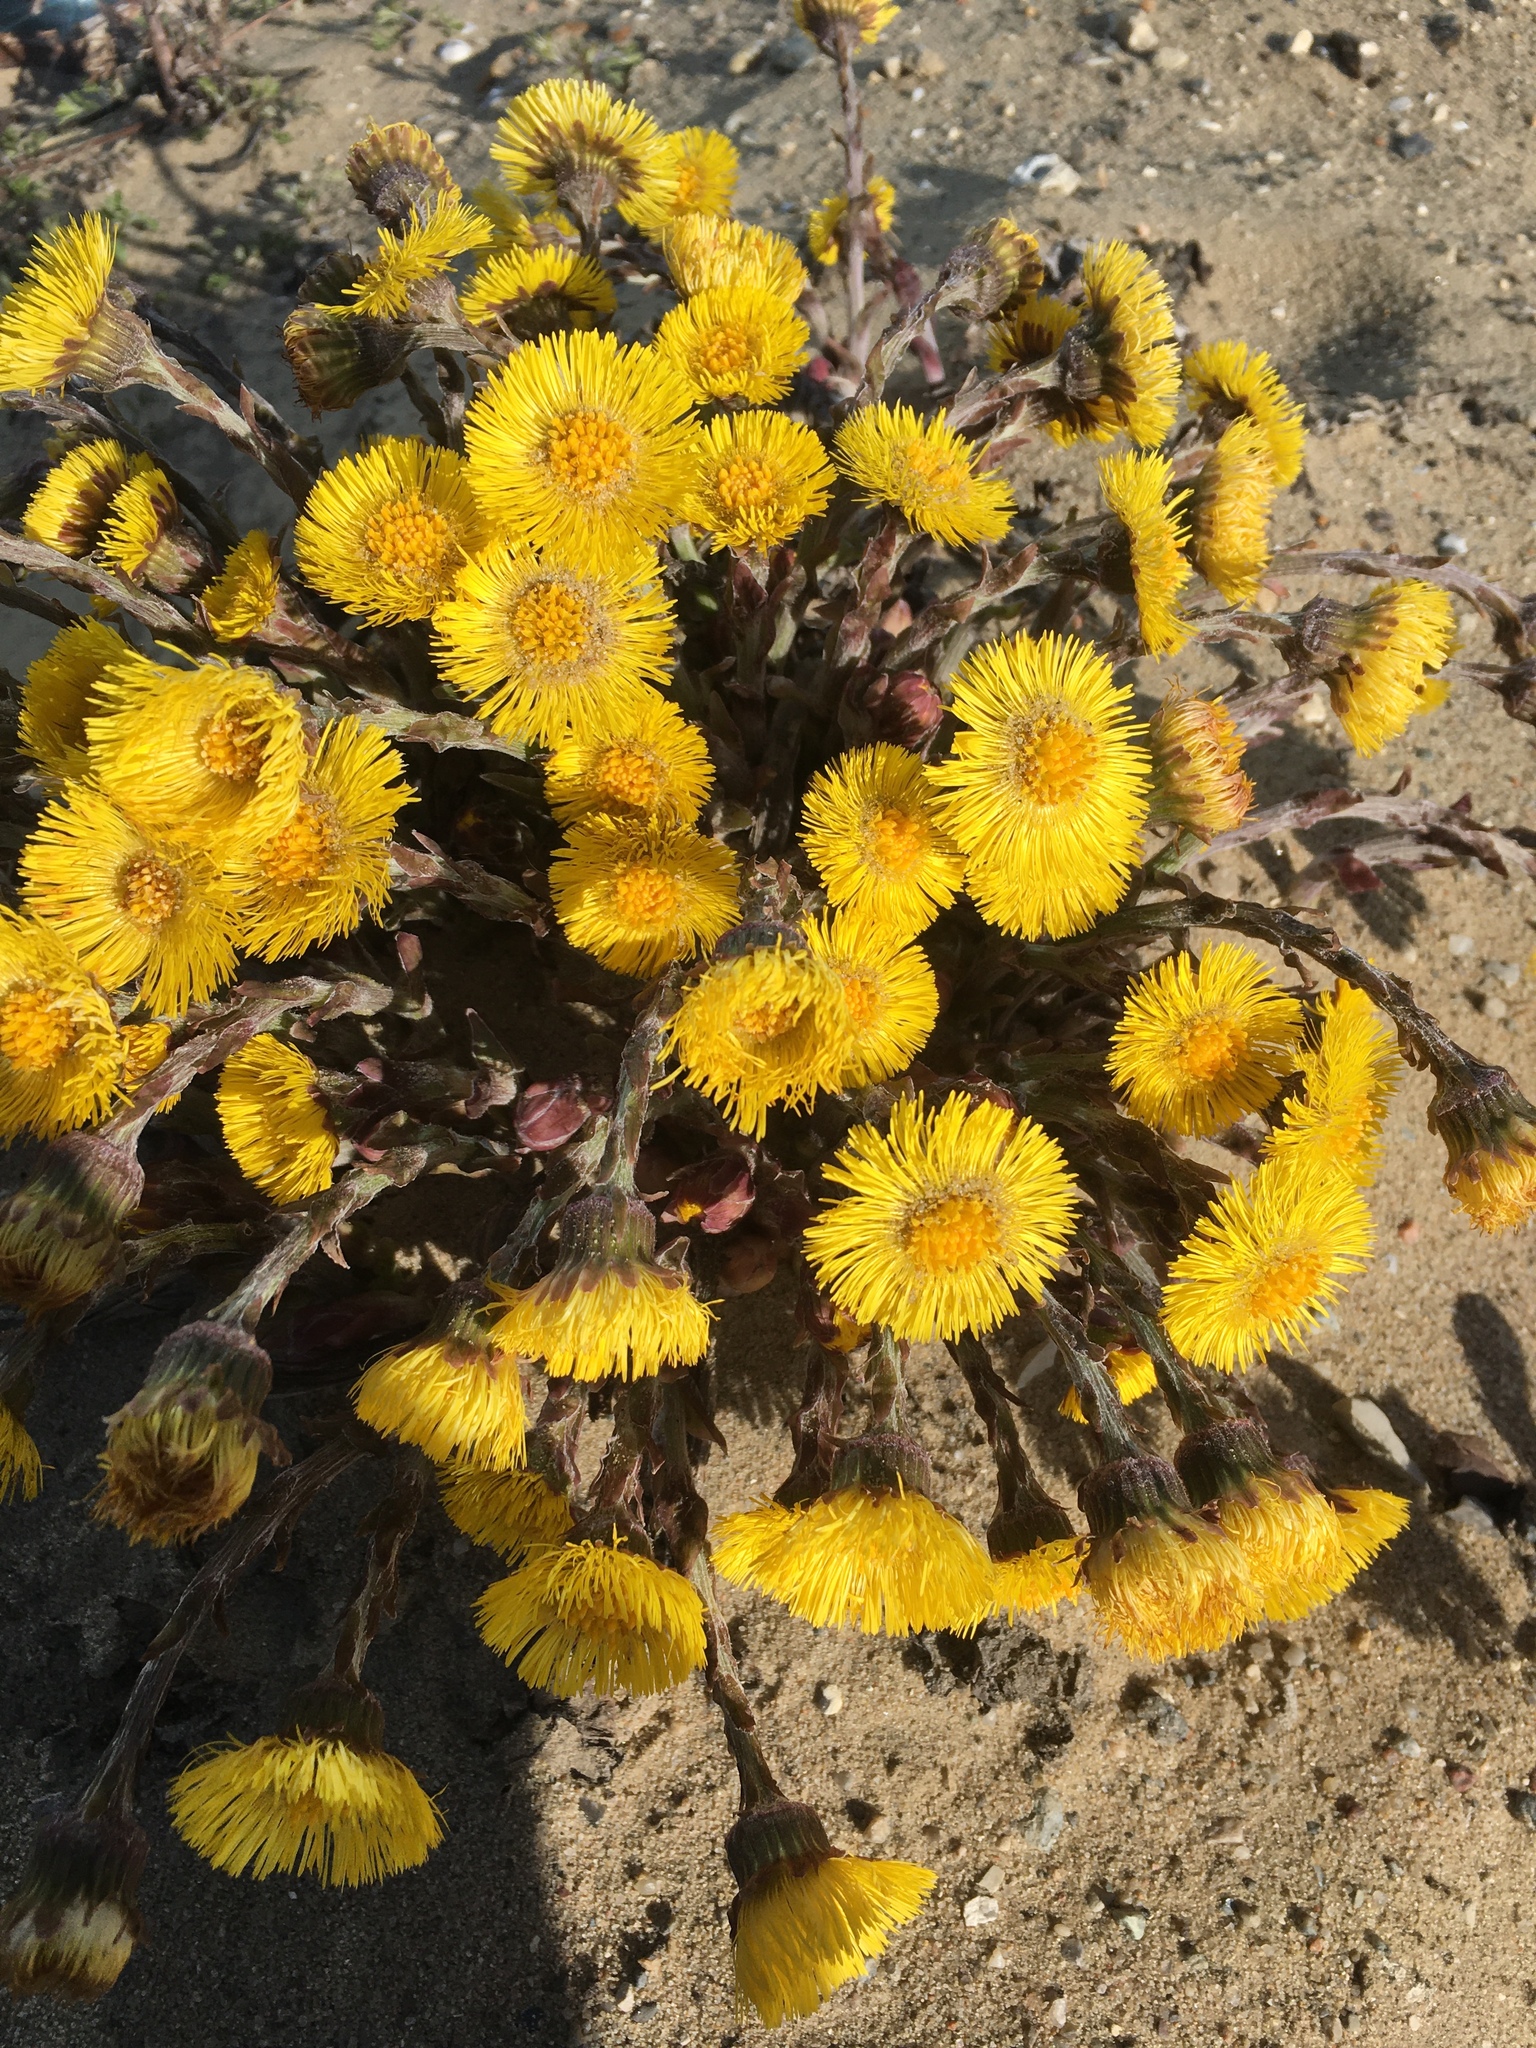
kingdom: Plantae
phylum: Tracheophyta
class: Magnoliopsida
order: Asterales
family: Asteraceae
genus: Tussilago
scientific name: Tussilago farfara
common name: Coltsfoot
